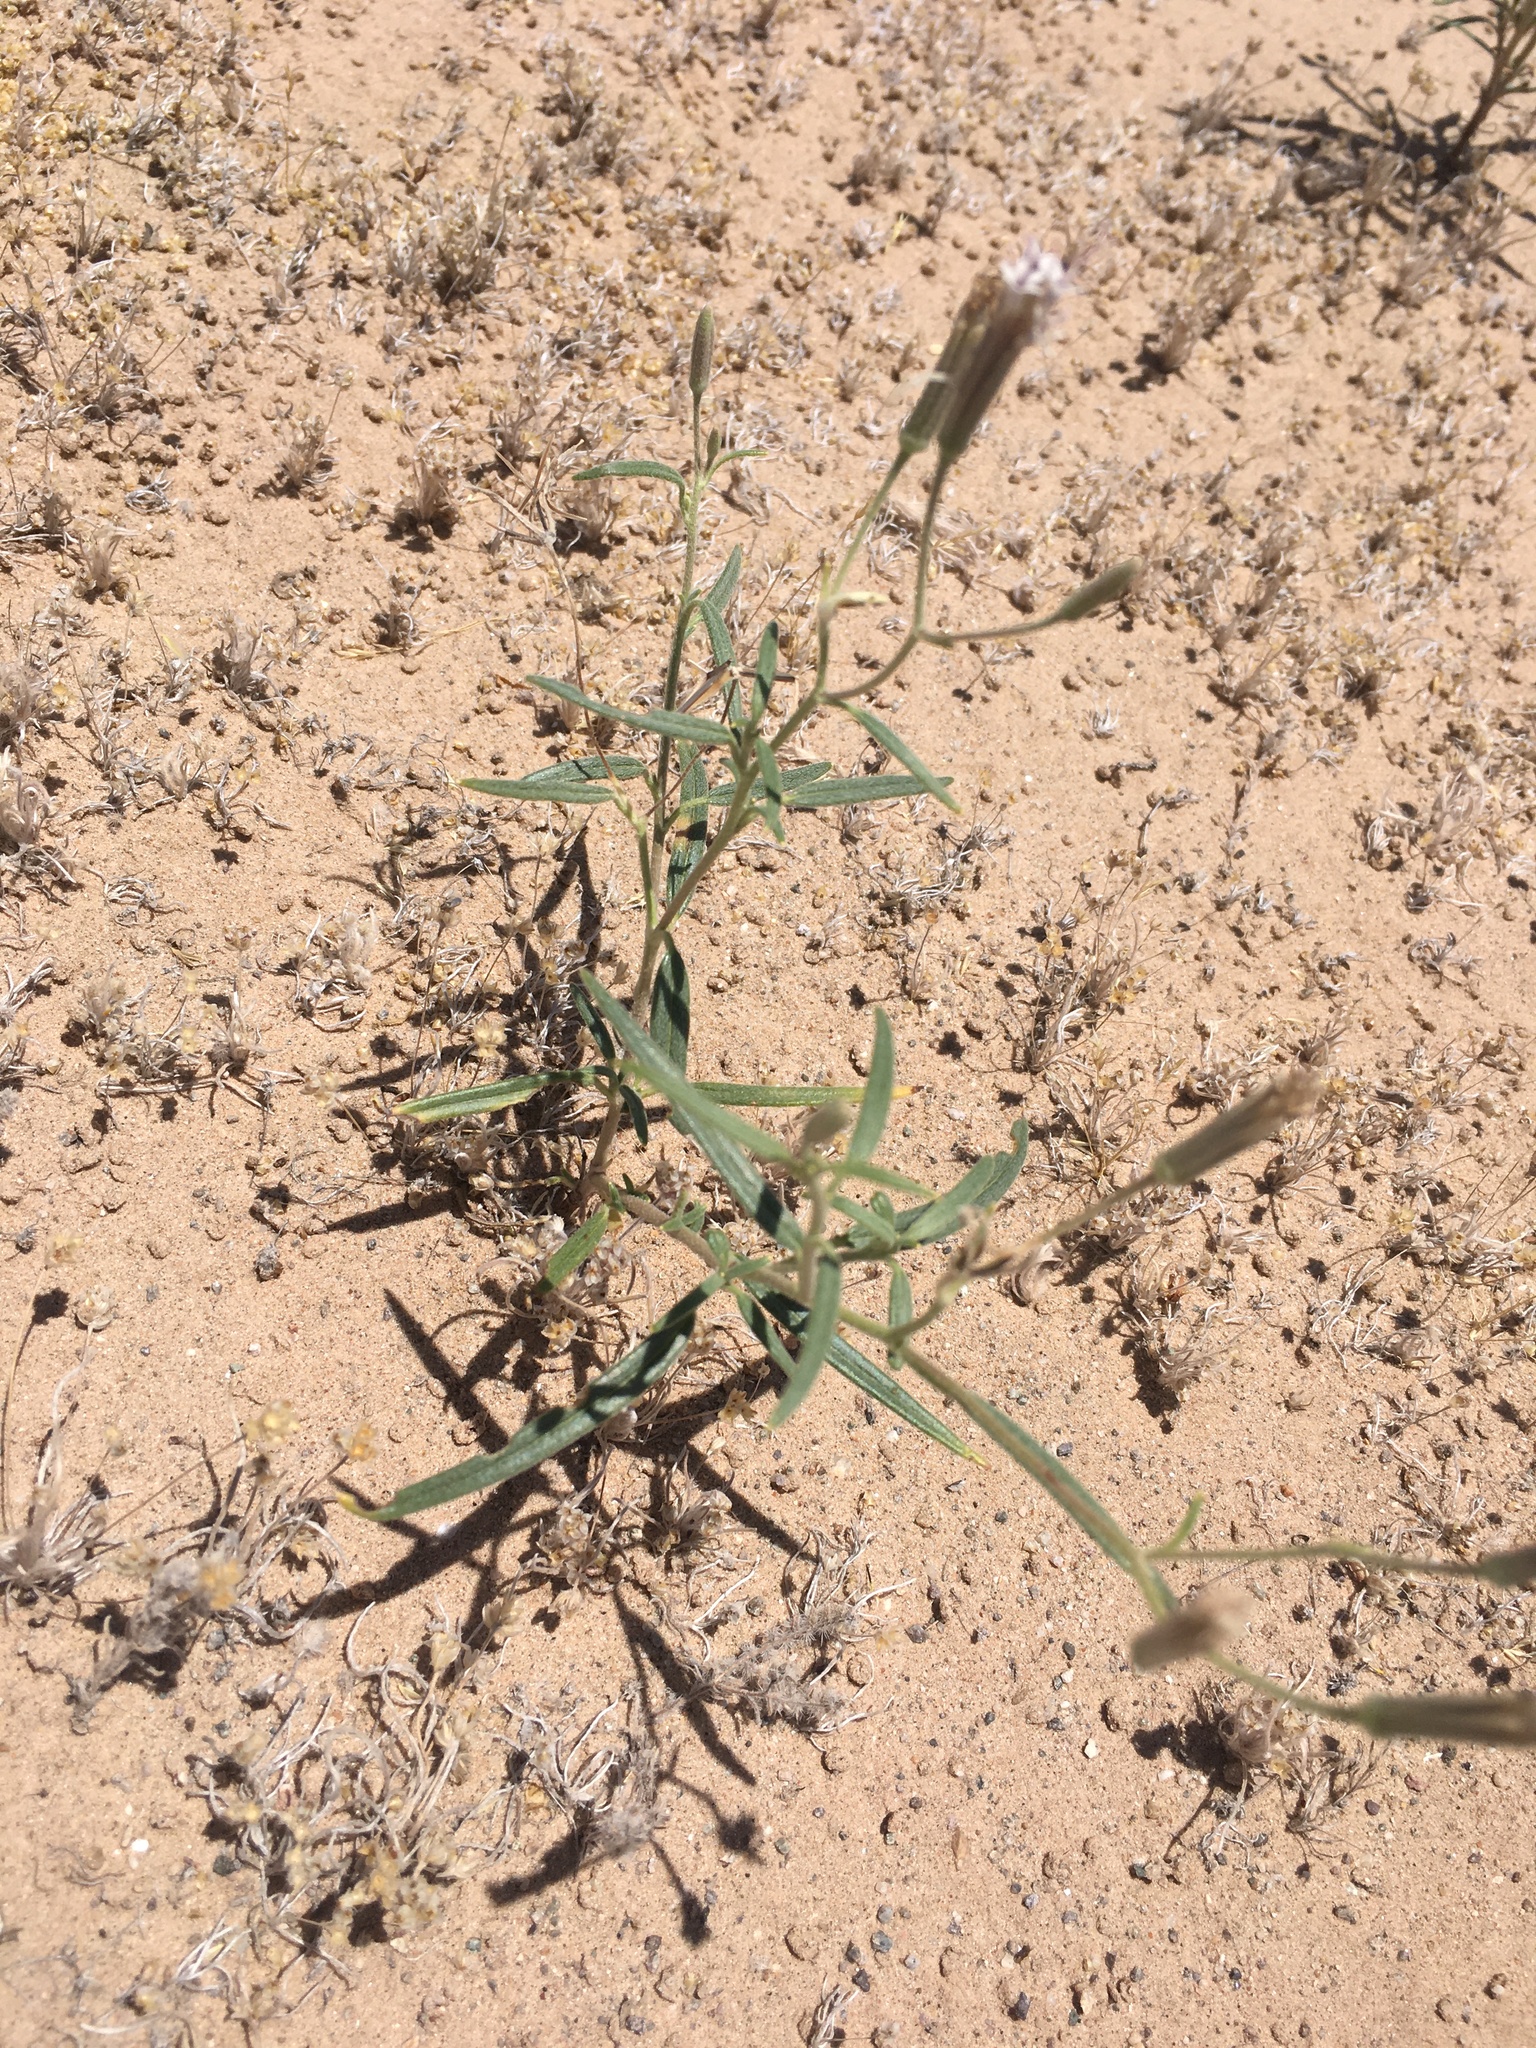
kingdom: Plantae
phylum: Tracheophyta
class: Magnoliopsida
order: Asterales
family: Asteraceae
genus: Palafoxia
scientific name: Palafoxia arida
